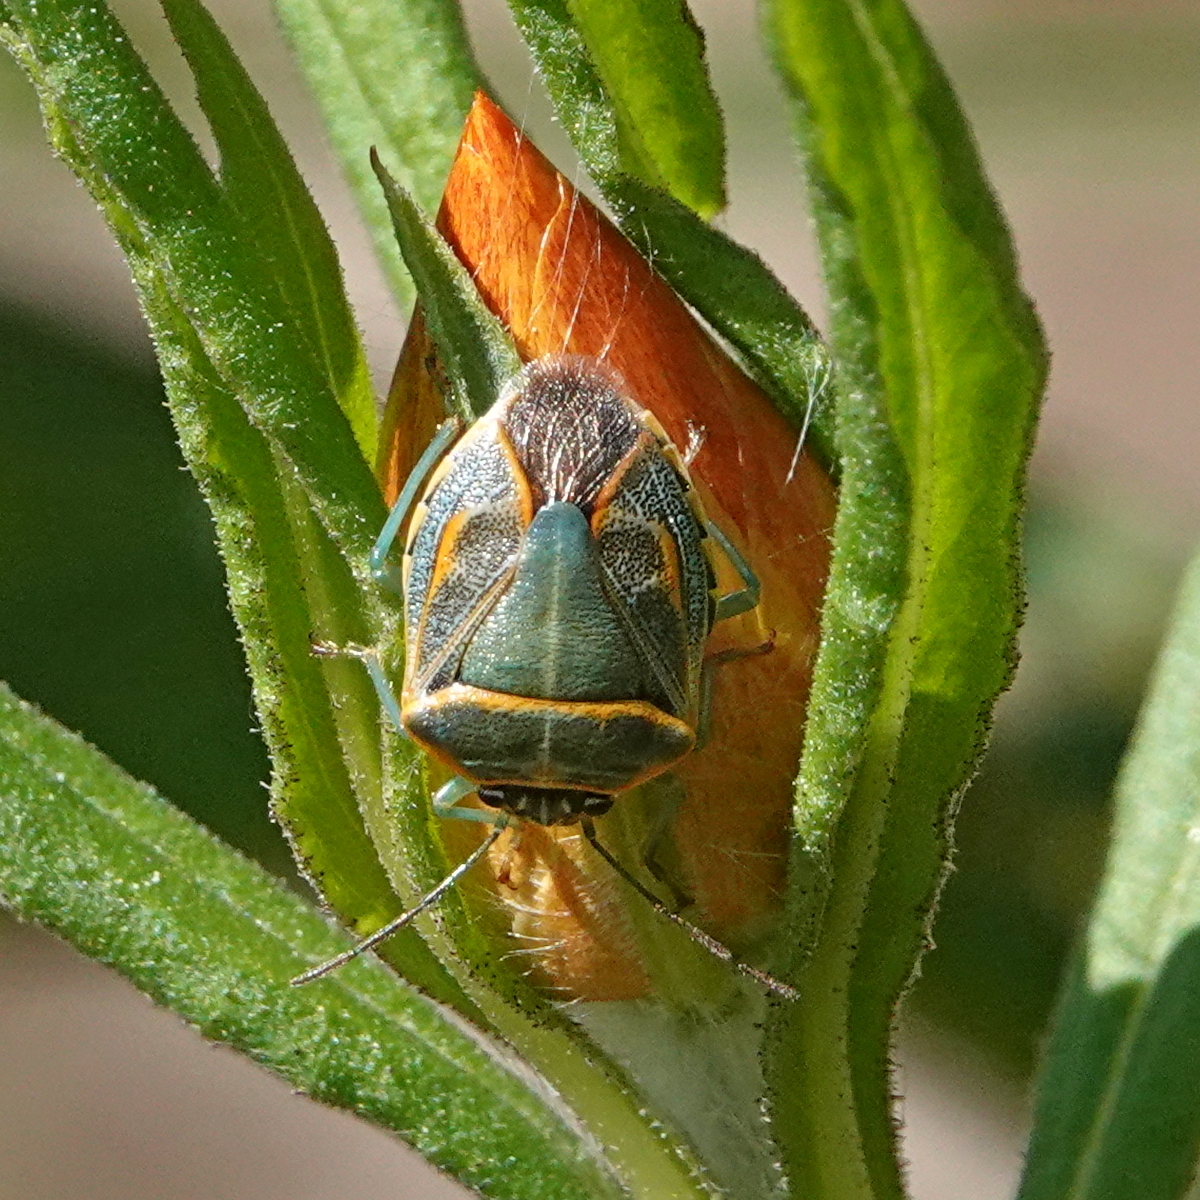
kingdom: Animalia
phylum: Arthropoda
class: Insecta
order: Hemiptera
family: Pentatomidae
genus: Antestiopsis
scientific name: Antestiopsis
